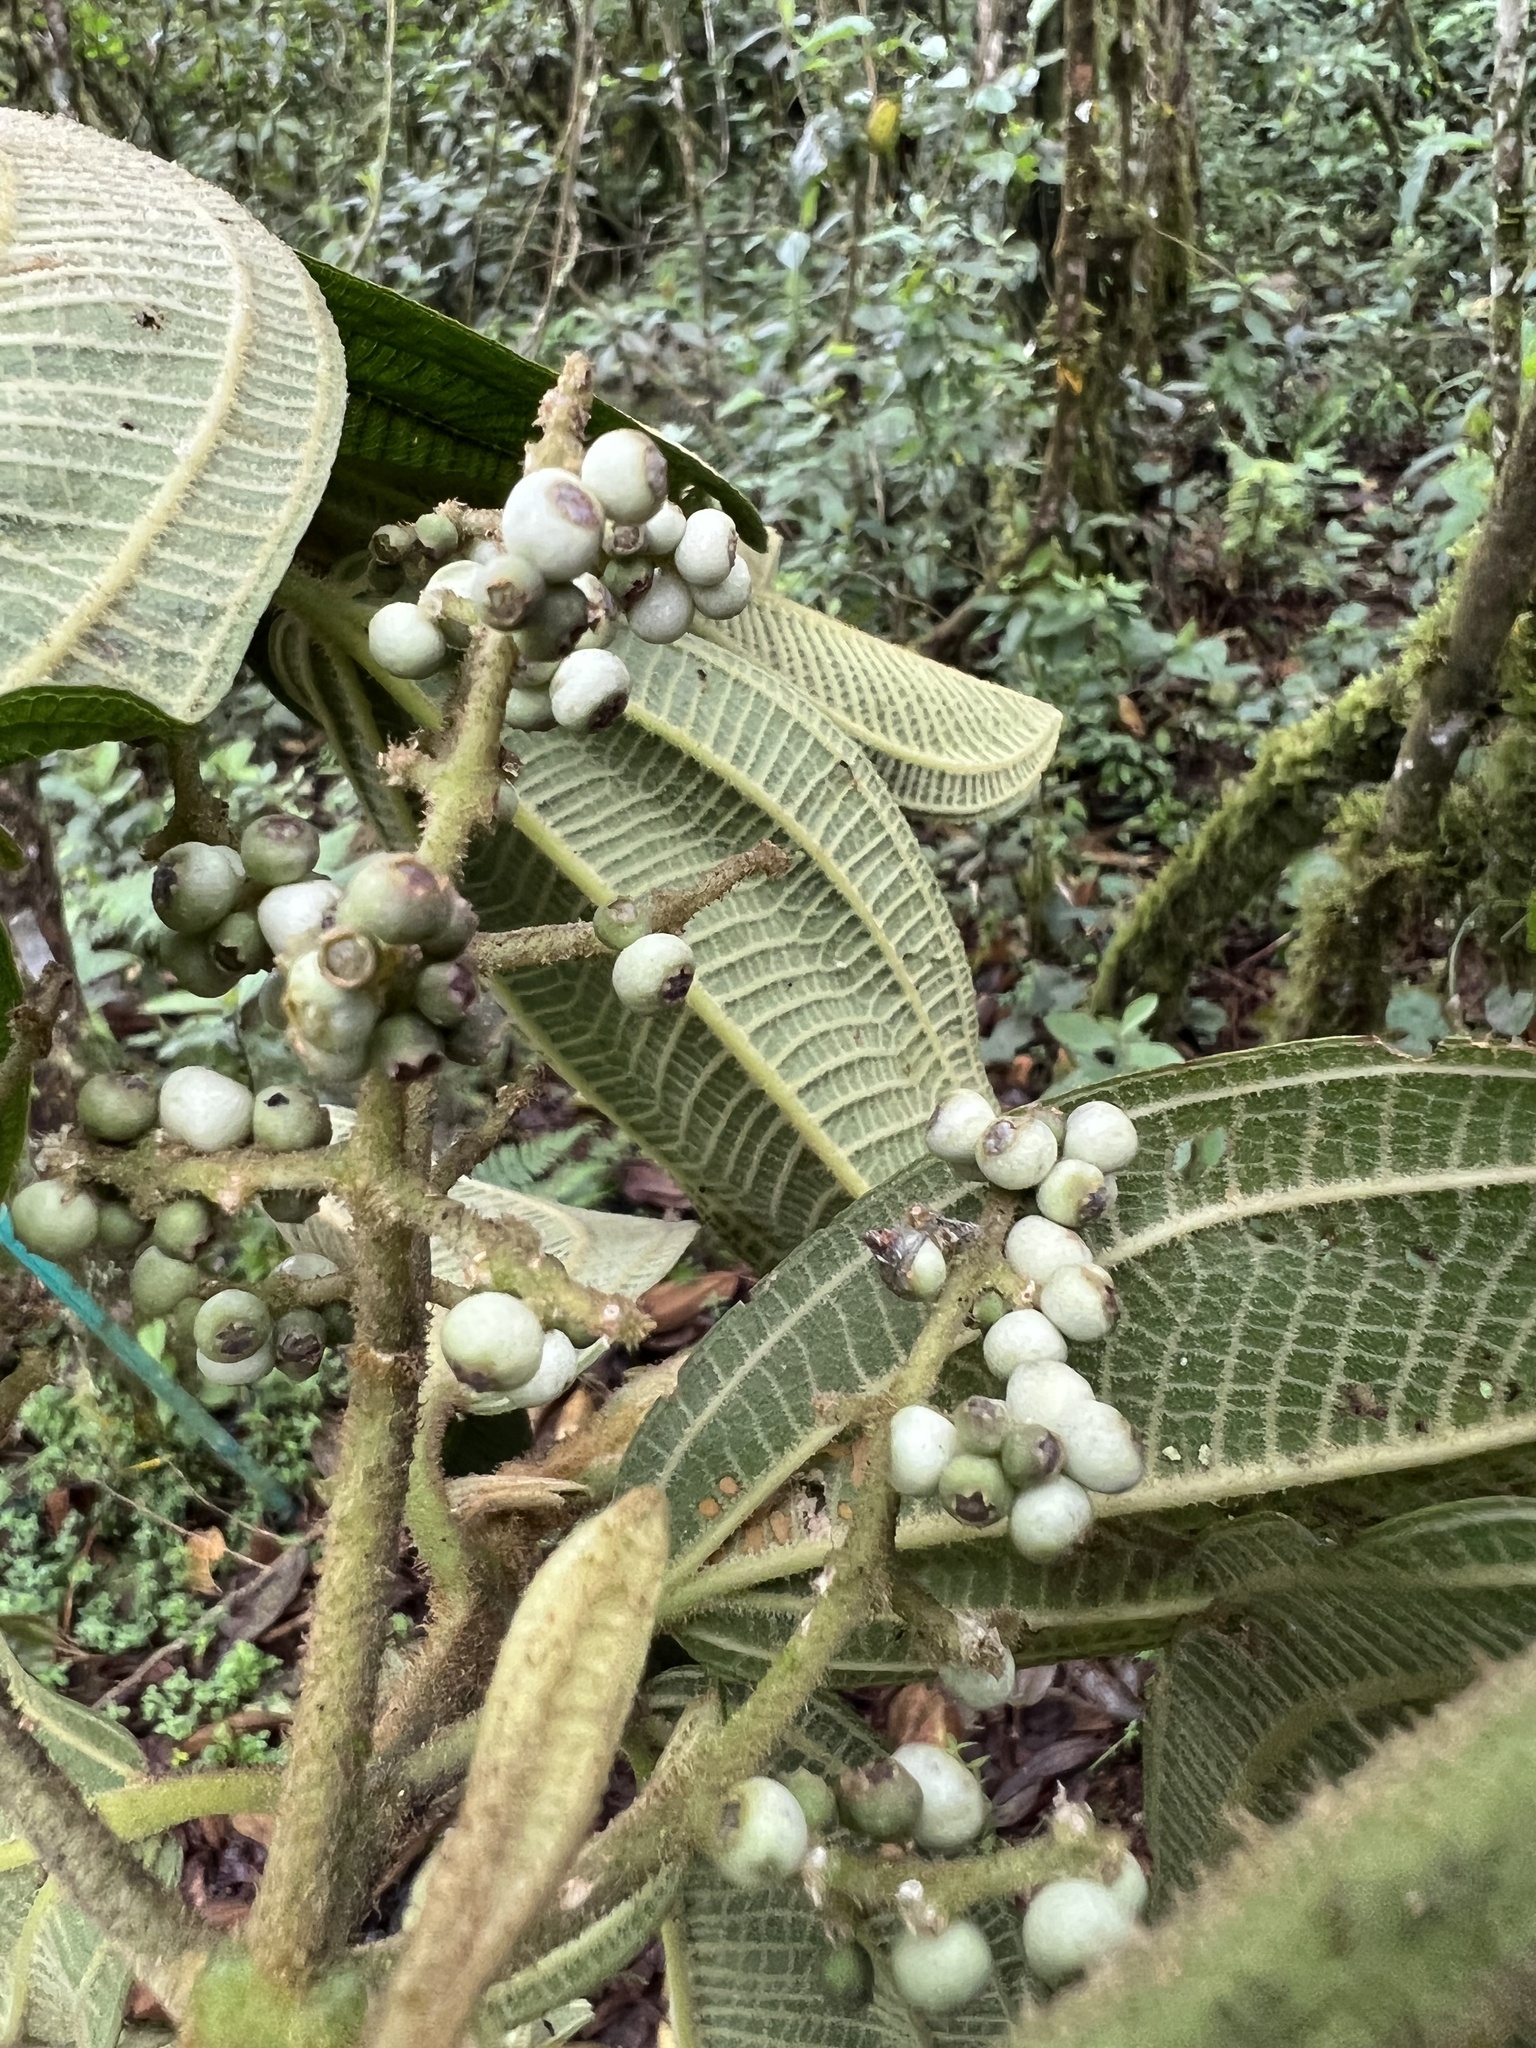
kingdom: Plantae
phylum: Tracheophyta
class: Magnoliopsida
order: Myrtales
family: Melastomataceae
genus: Miconia
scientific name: Miconia plethorica
